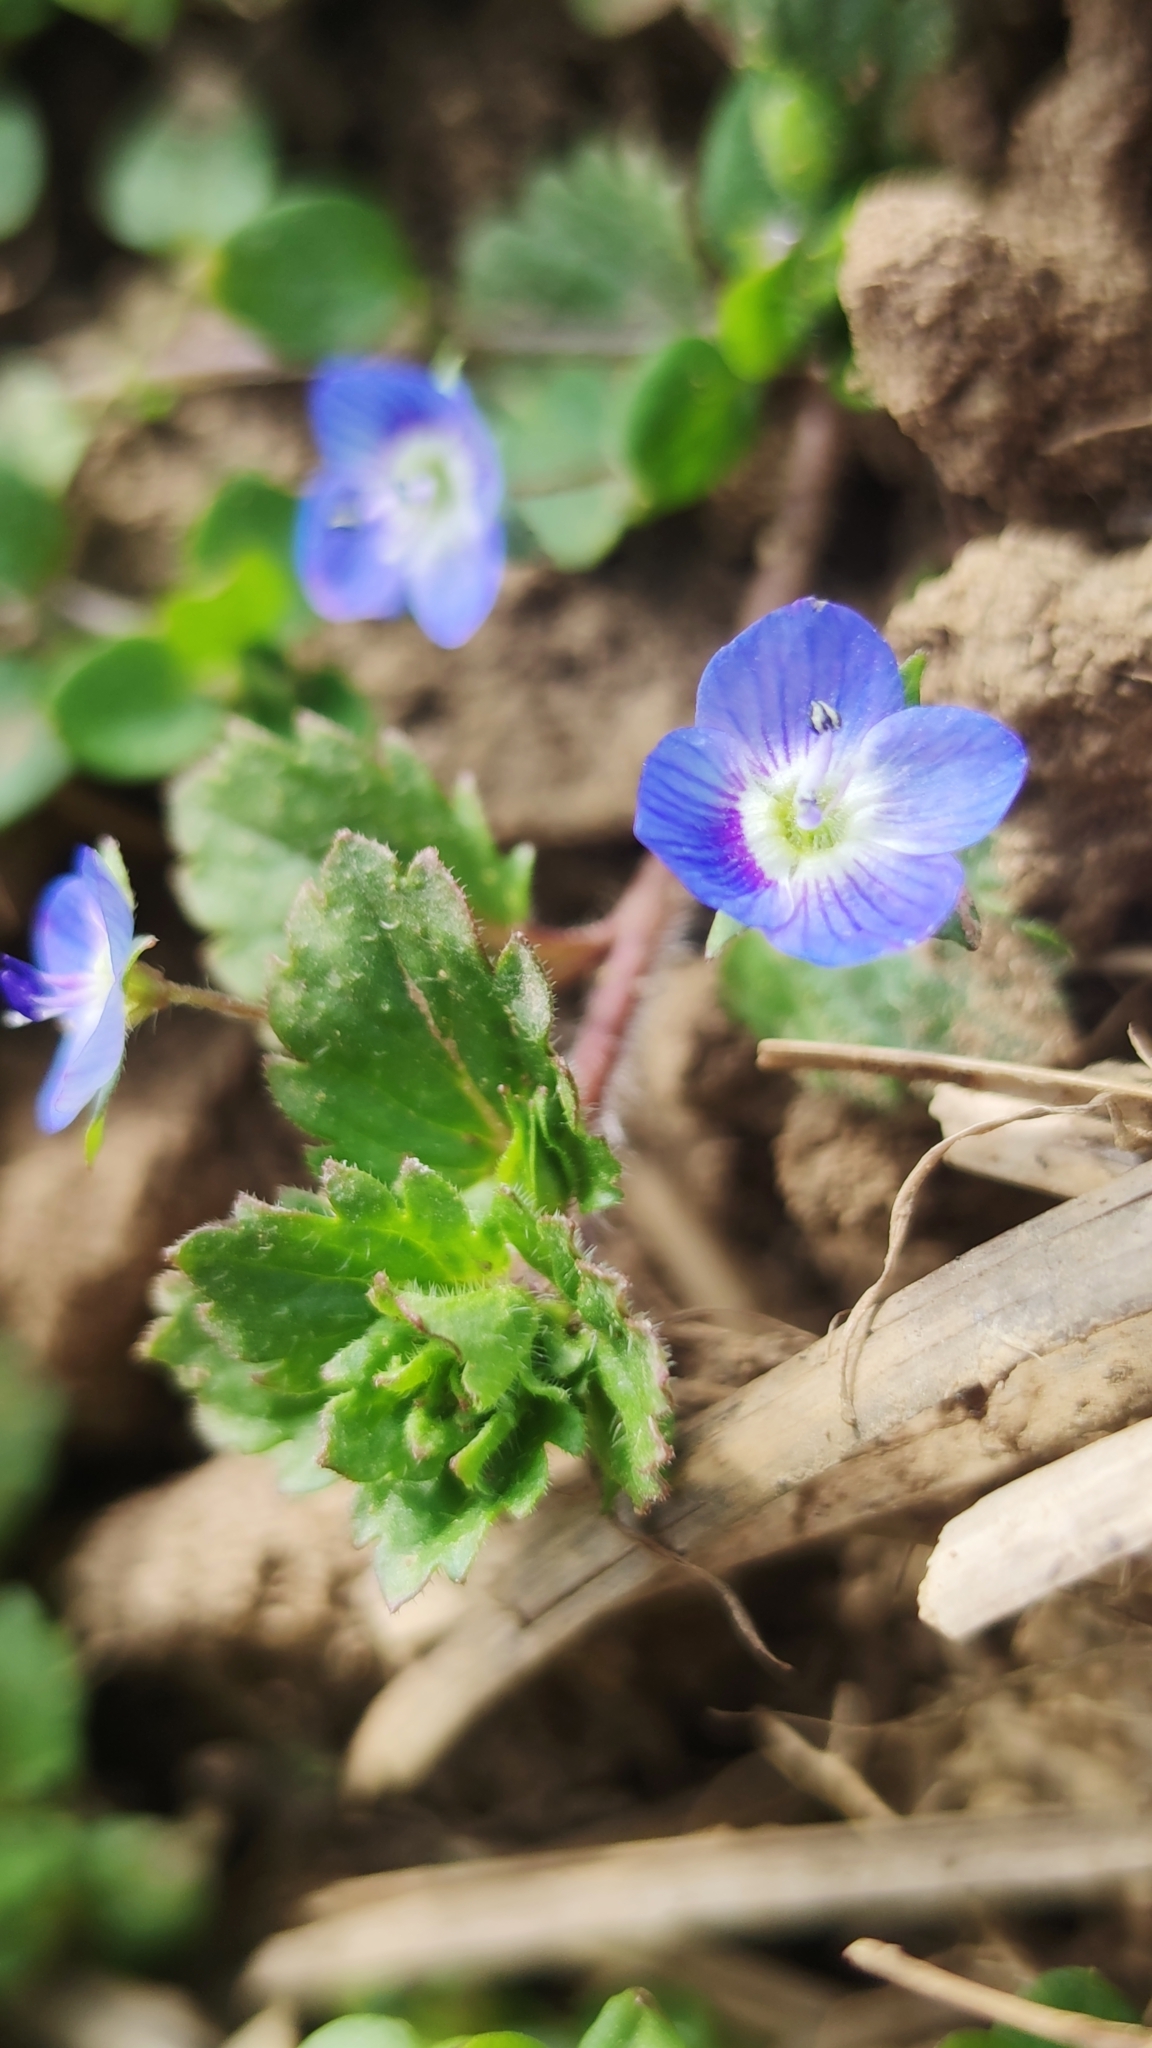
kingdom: Plantae
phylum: Tracheophyta
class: Magnoliopsida
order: Lamiales
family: Plantaginaceae
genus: Veronica
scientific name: Veronica persica
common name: Common field-speedwell
